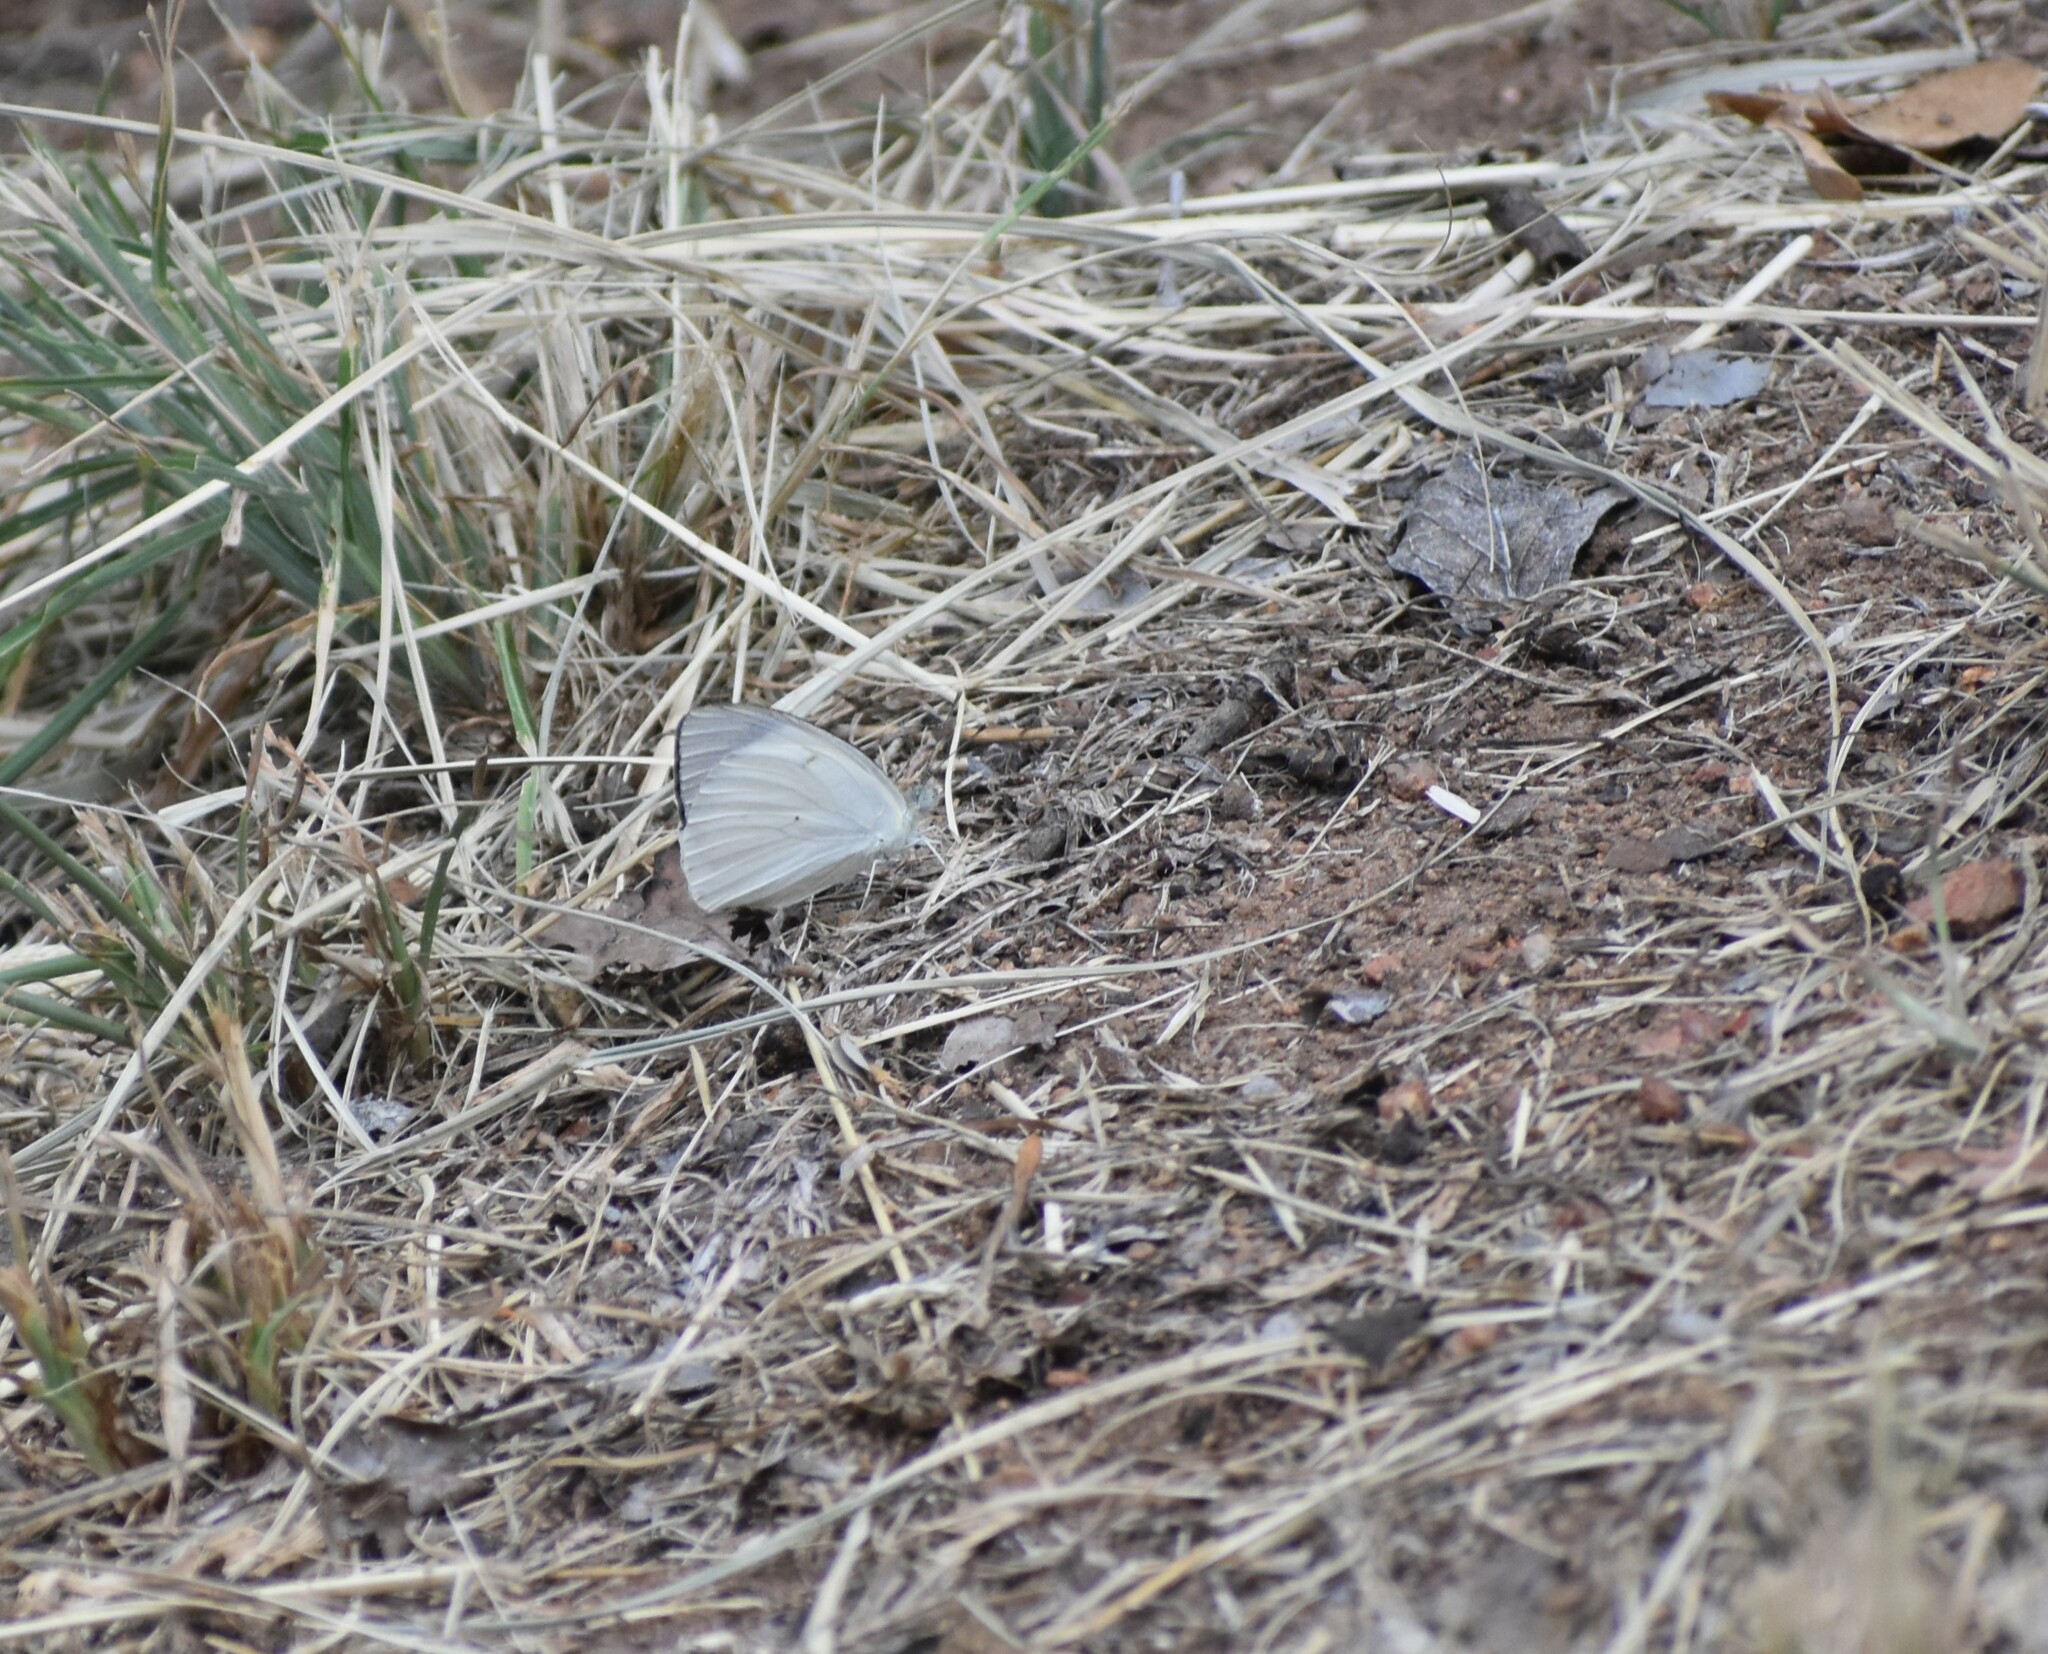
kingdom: Animalia
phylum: Arthropoda
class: Insecta
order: Lepidoptera
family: Pieridae
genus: Colotis
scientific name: Colotis ione
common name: Bushveld purple tip
